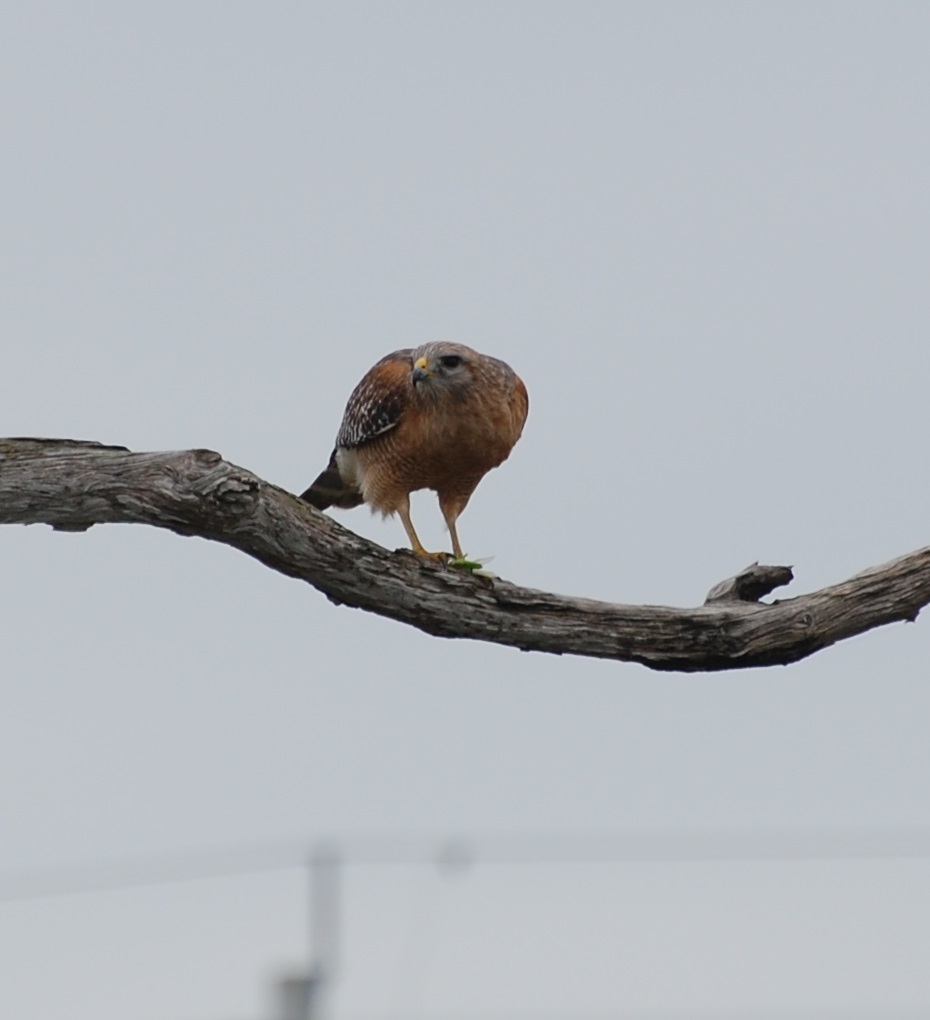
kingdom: Animalia
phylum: Chordata
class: Aves
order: Accipitriformes
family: Accipitridae
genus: Buteo
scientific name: Buteo lineatus
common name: Red-shouldered hawk
